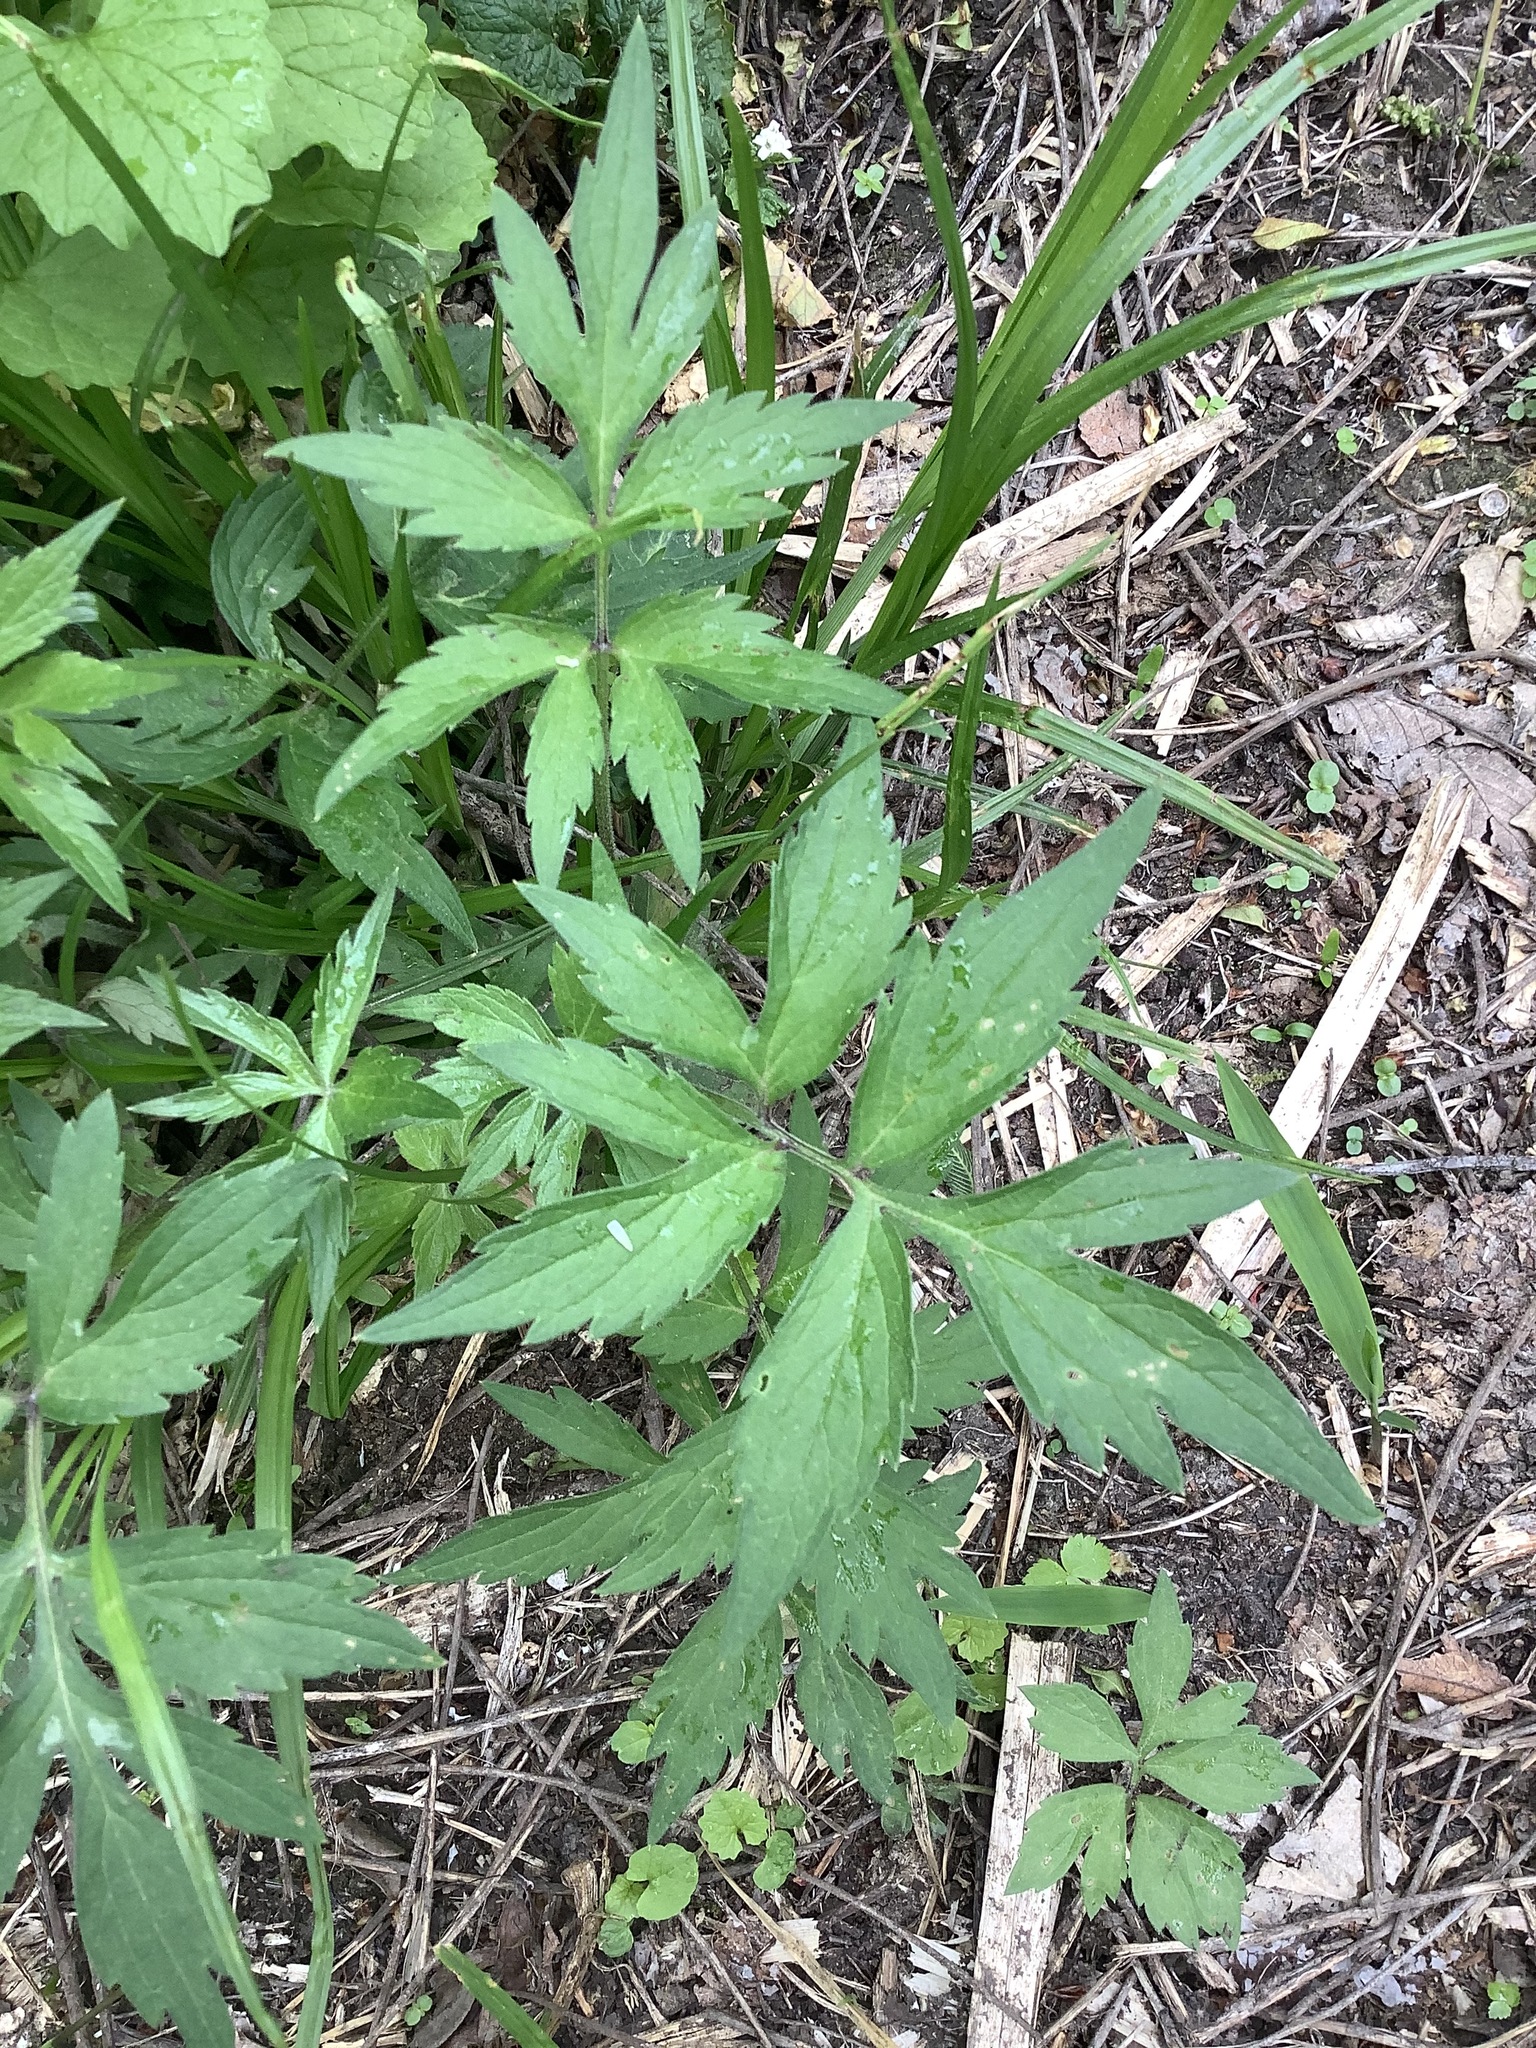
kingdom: Plantae
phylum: Tracheophyta
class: Magnoliopsida
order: Boraginales
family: Hydrophyllaceae
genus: Hydrophyllum
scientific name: Hydrophyllum virginianum
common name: Virginia waterleaf
